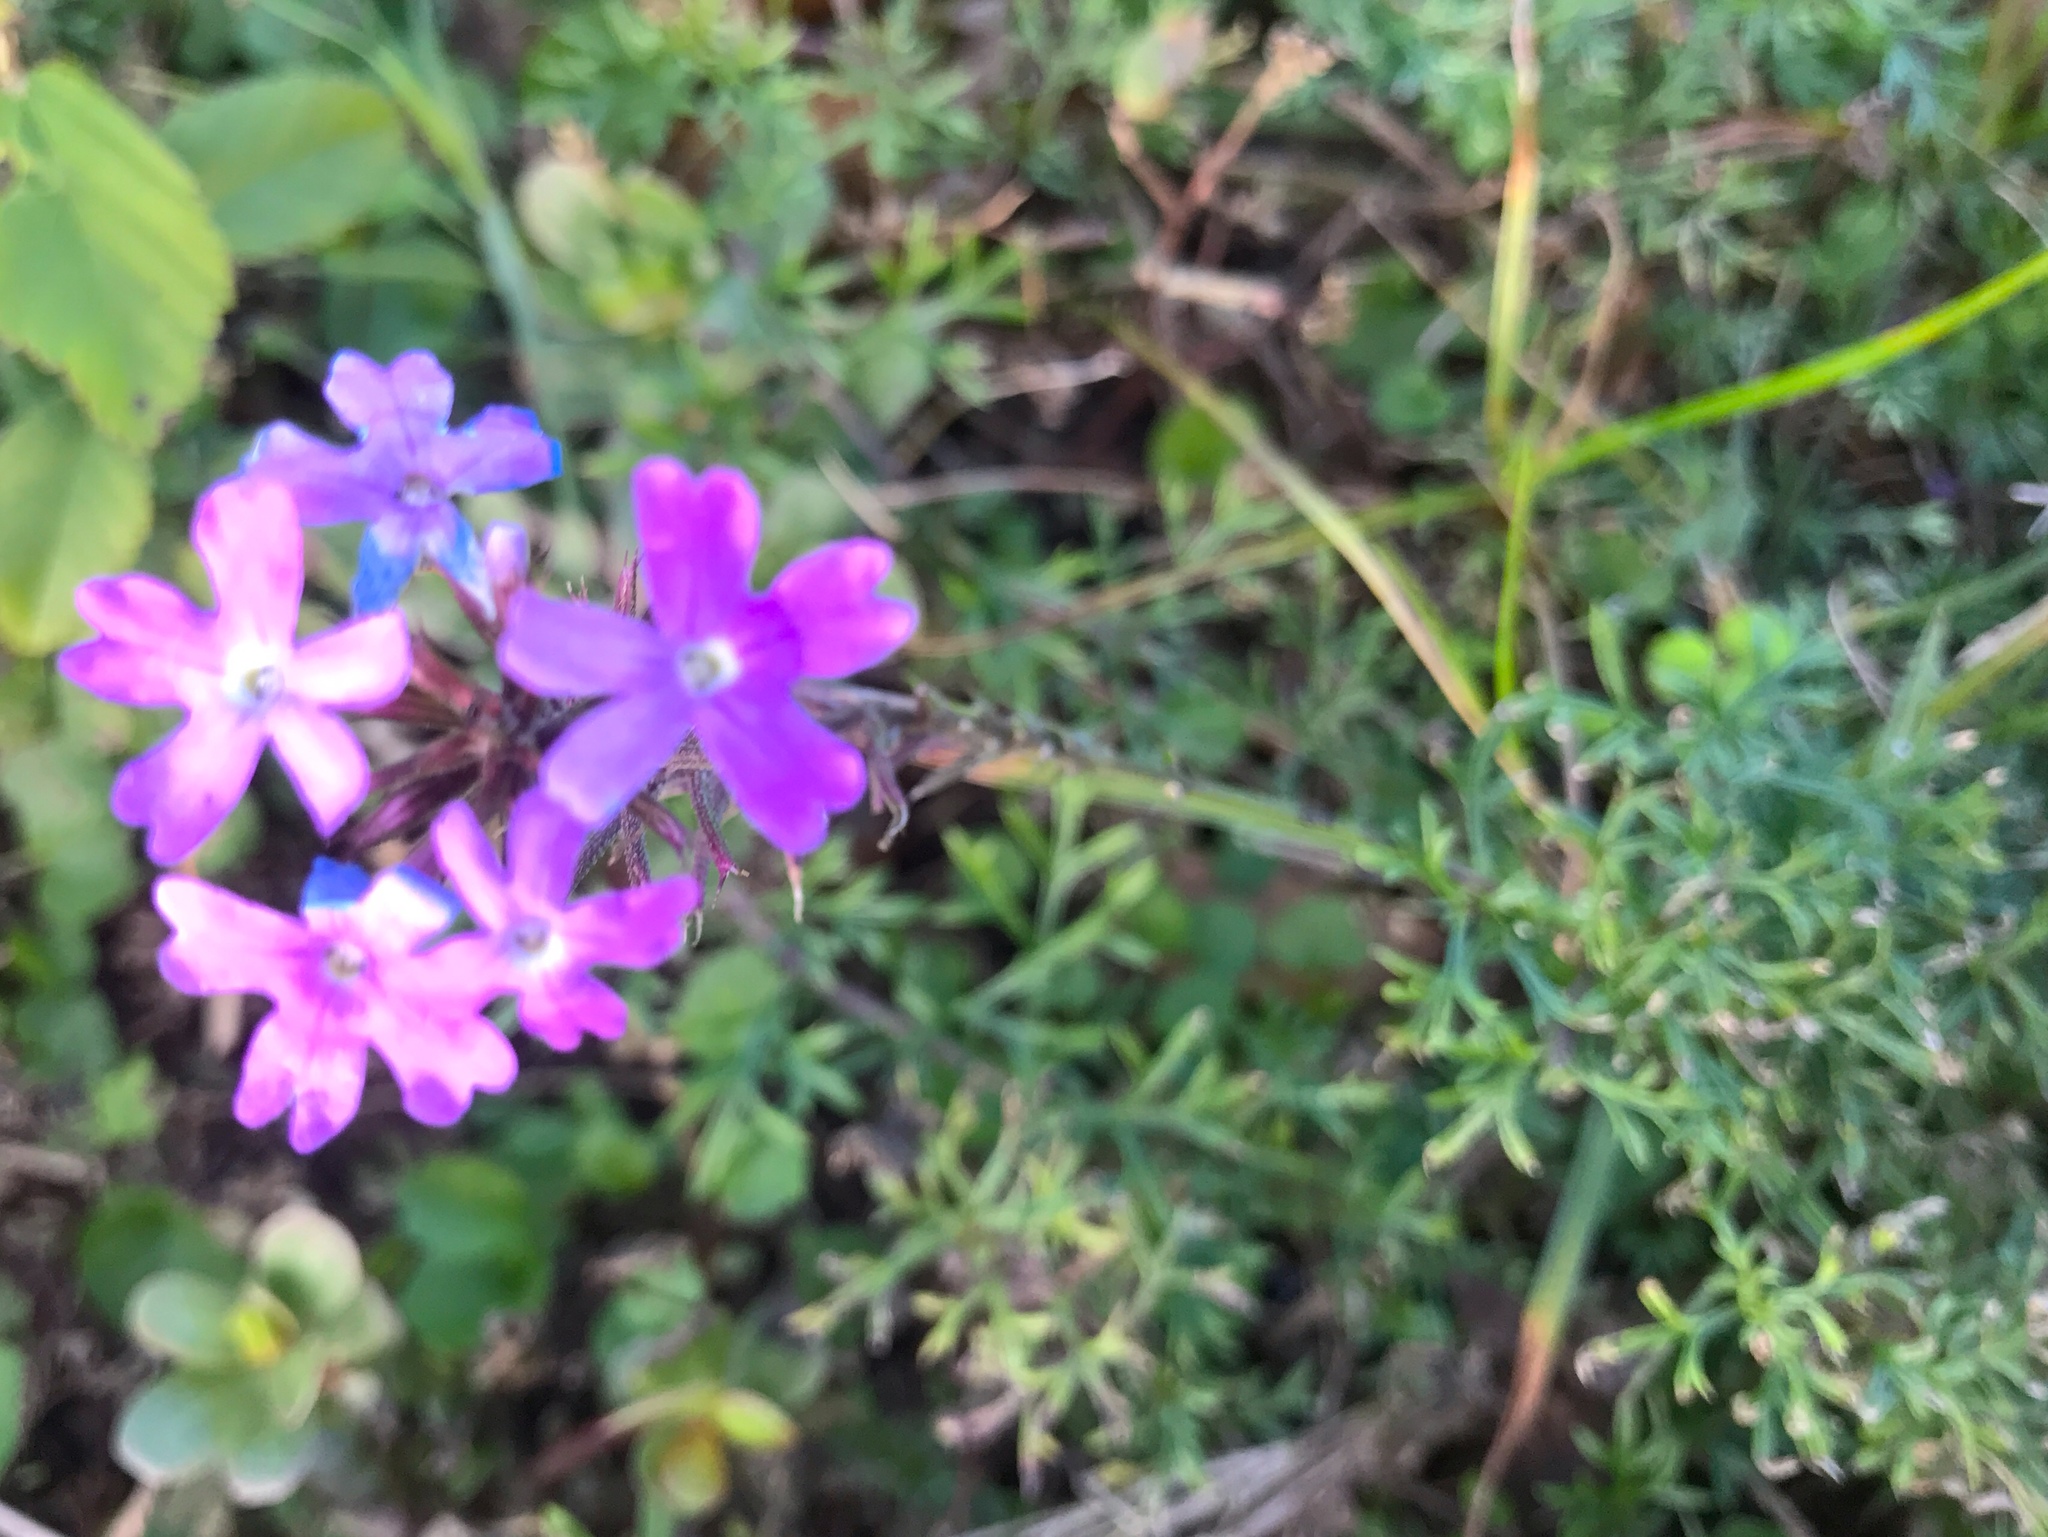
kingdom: Plantae
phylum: Tracheophyta
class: Magnoliopsida
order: Lamiales
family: Verbenaceae
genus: Verbena
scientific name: Verbena
